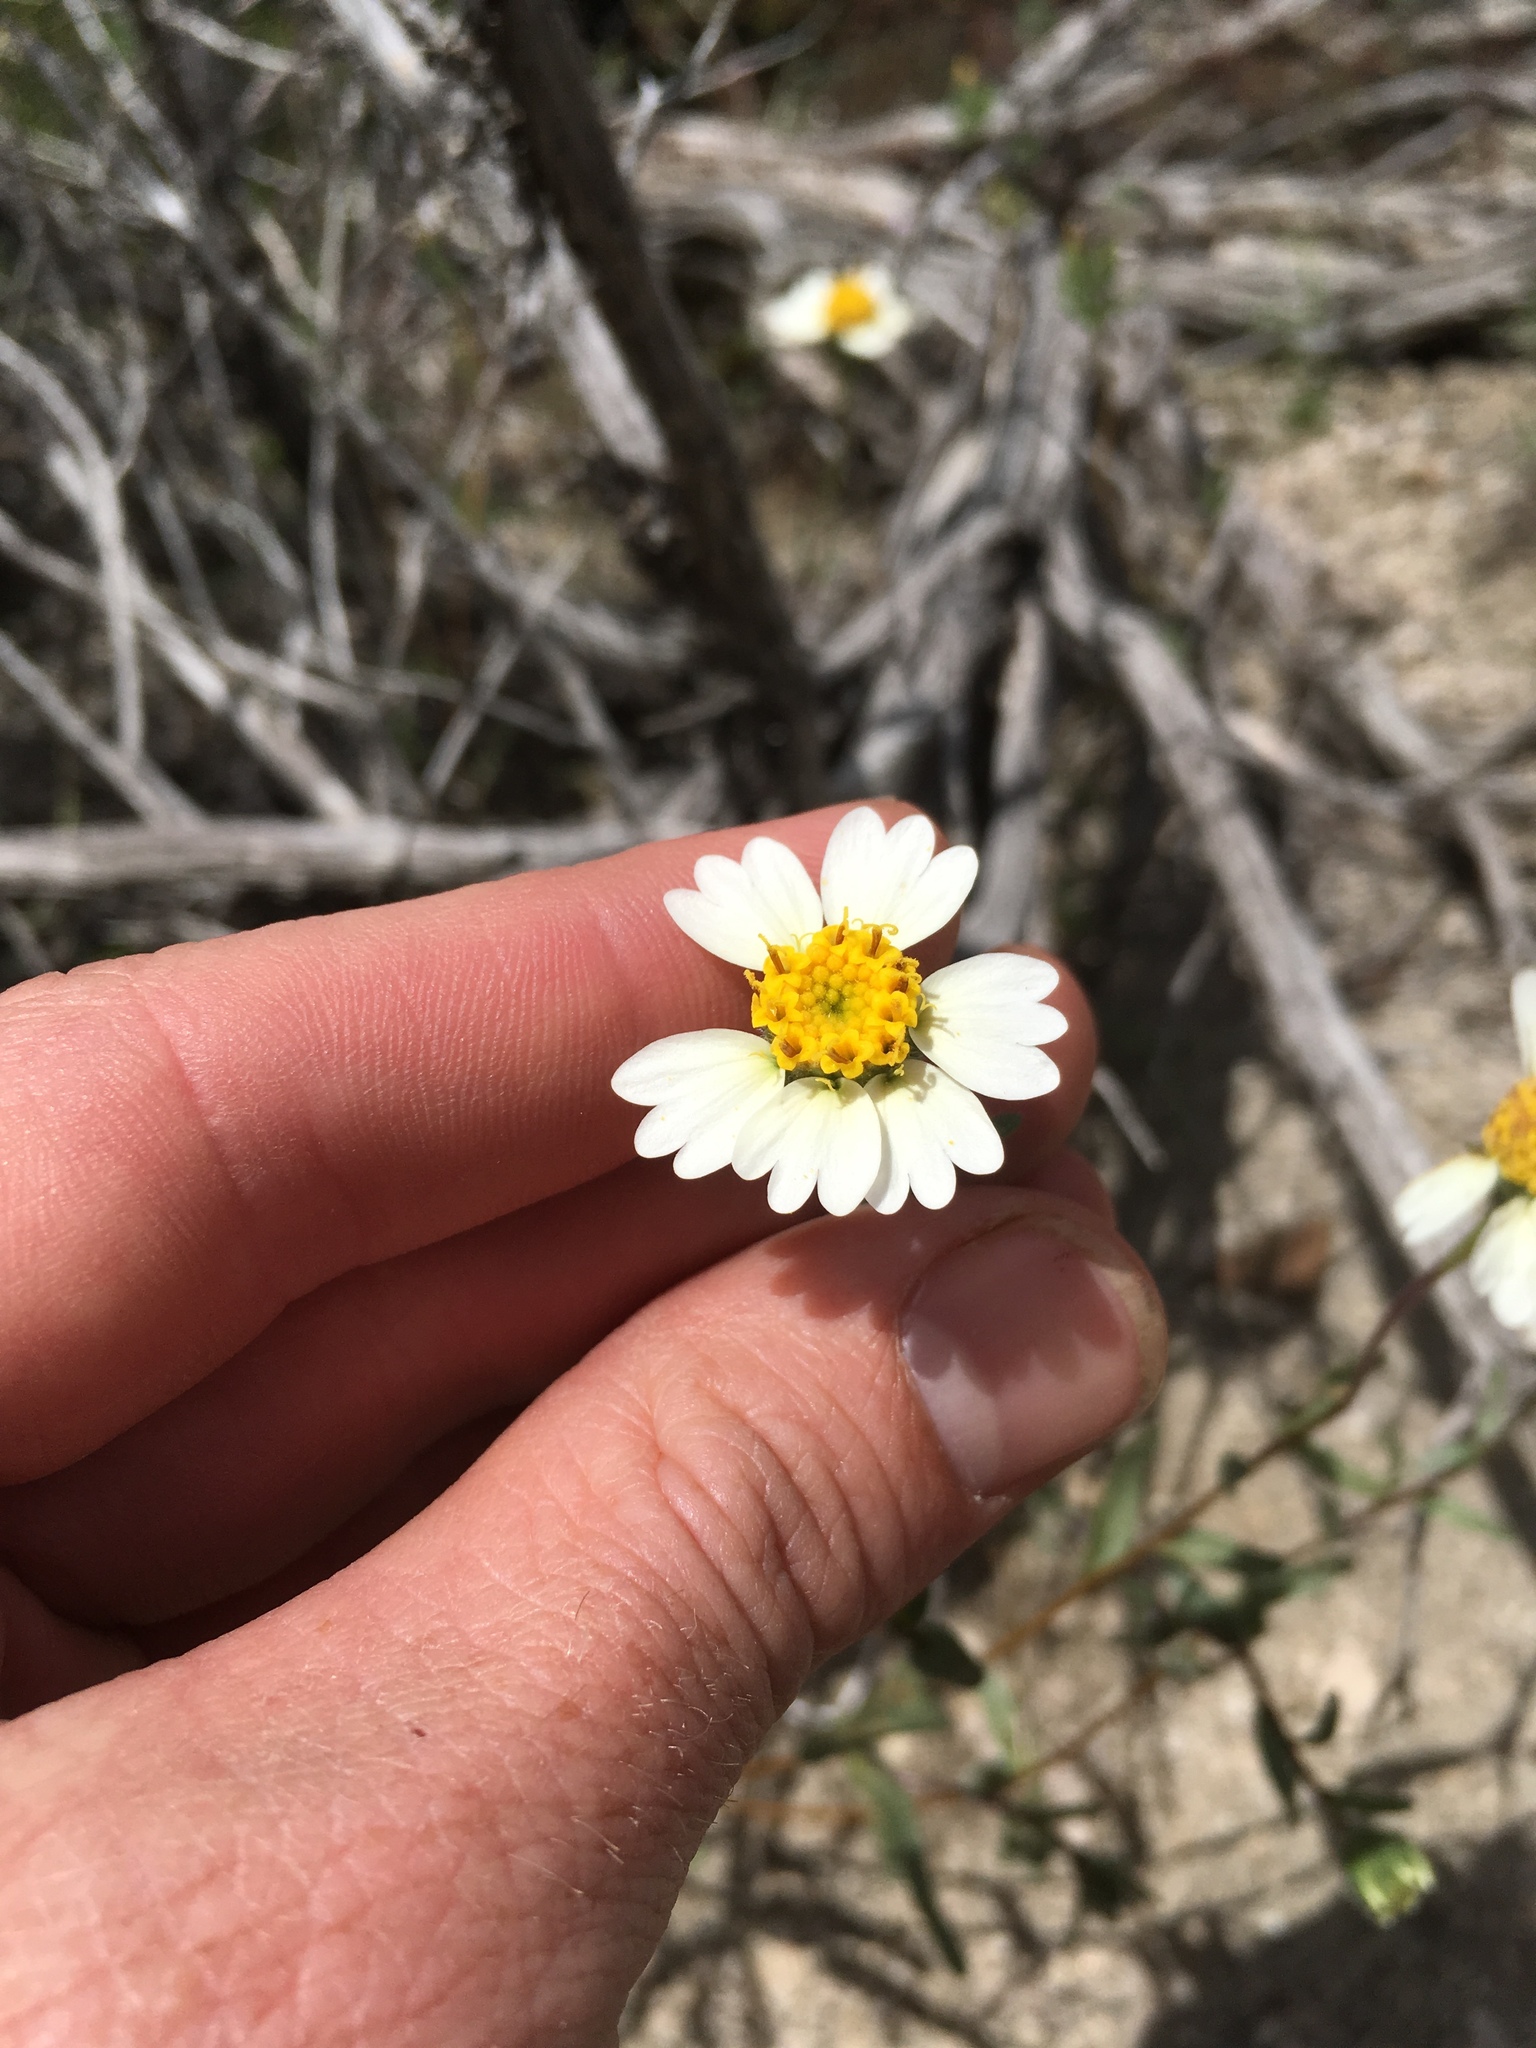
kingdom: Plantae
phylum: Tracheophyta
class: Magnoliopsida
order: Asterales
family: Asteraceae
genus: Layia
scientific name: Layia glandulosa
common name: White layia
